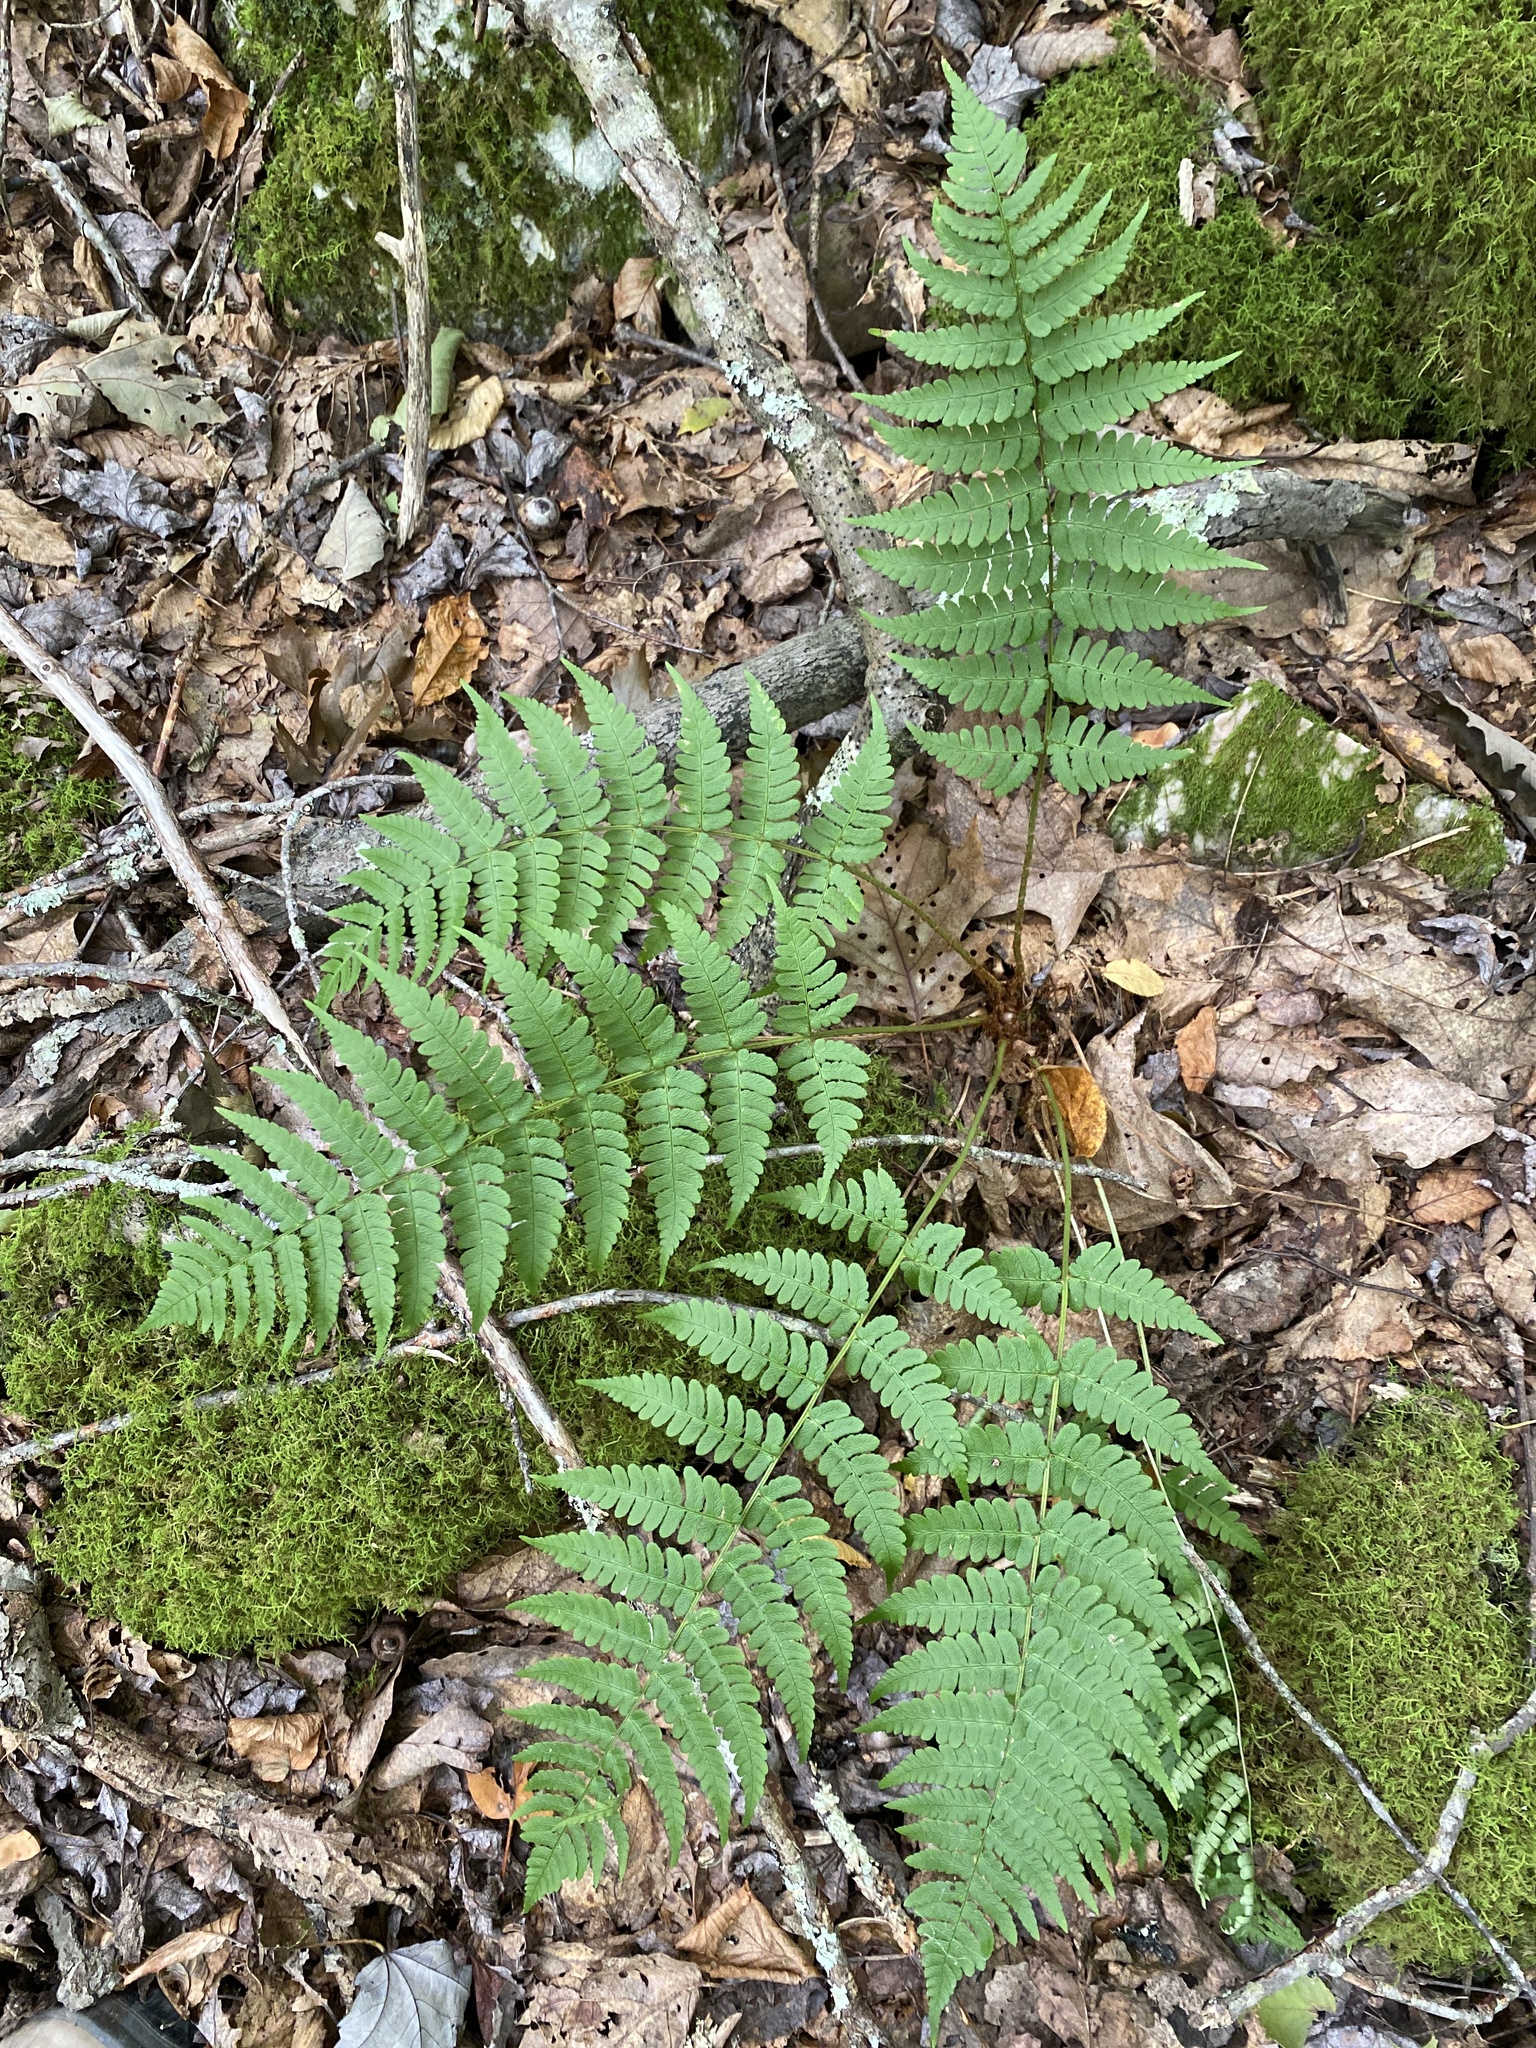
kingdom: Plantae
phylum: Tracheophyta
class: Polypodiopsida
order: Polypodiales
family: Dryopteridaceae
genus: Dryopteris
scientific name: Dryopteris marginalis
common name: Marginal wood fern
